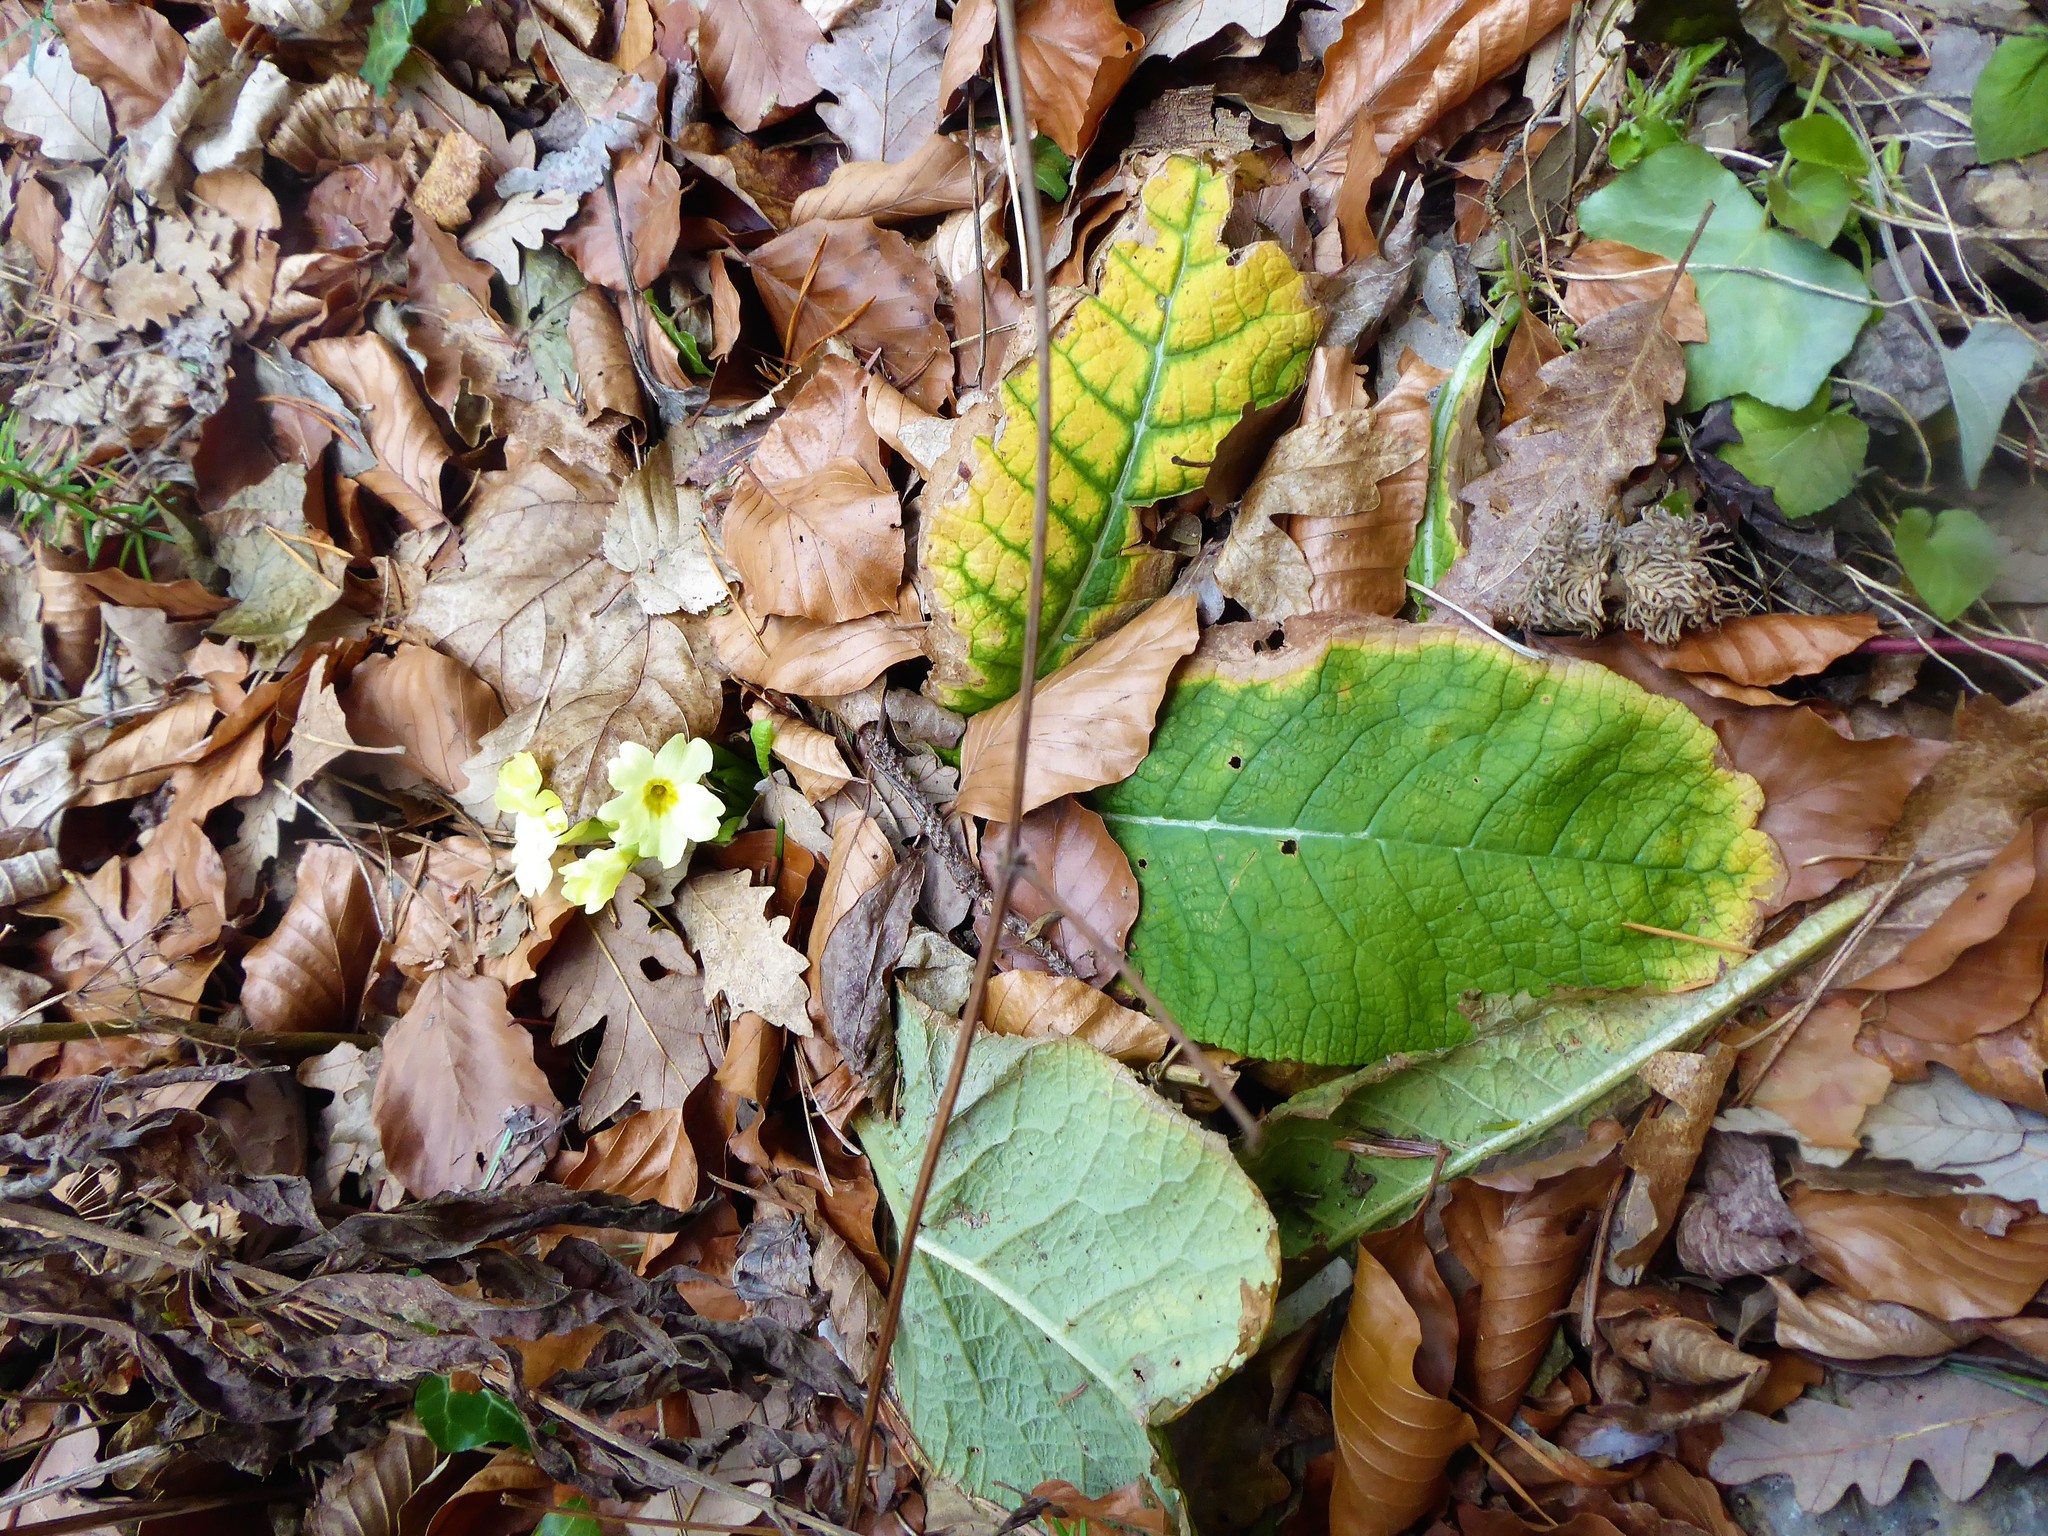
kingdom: Plantae
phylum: Tracheophyta
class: Magnoliopsida
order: Ericales
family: Primulaceae
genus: Primula
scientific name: Primula vulgaris
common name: Primrose
